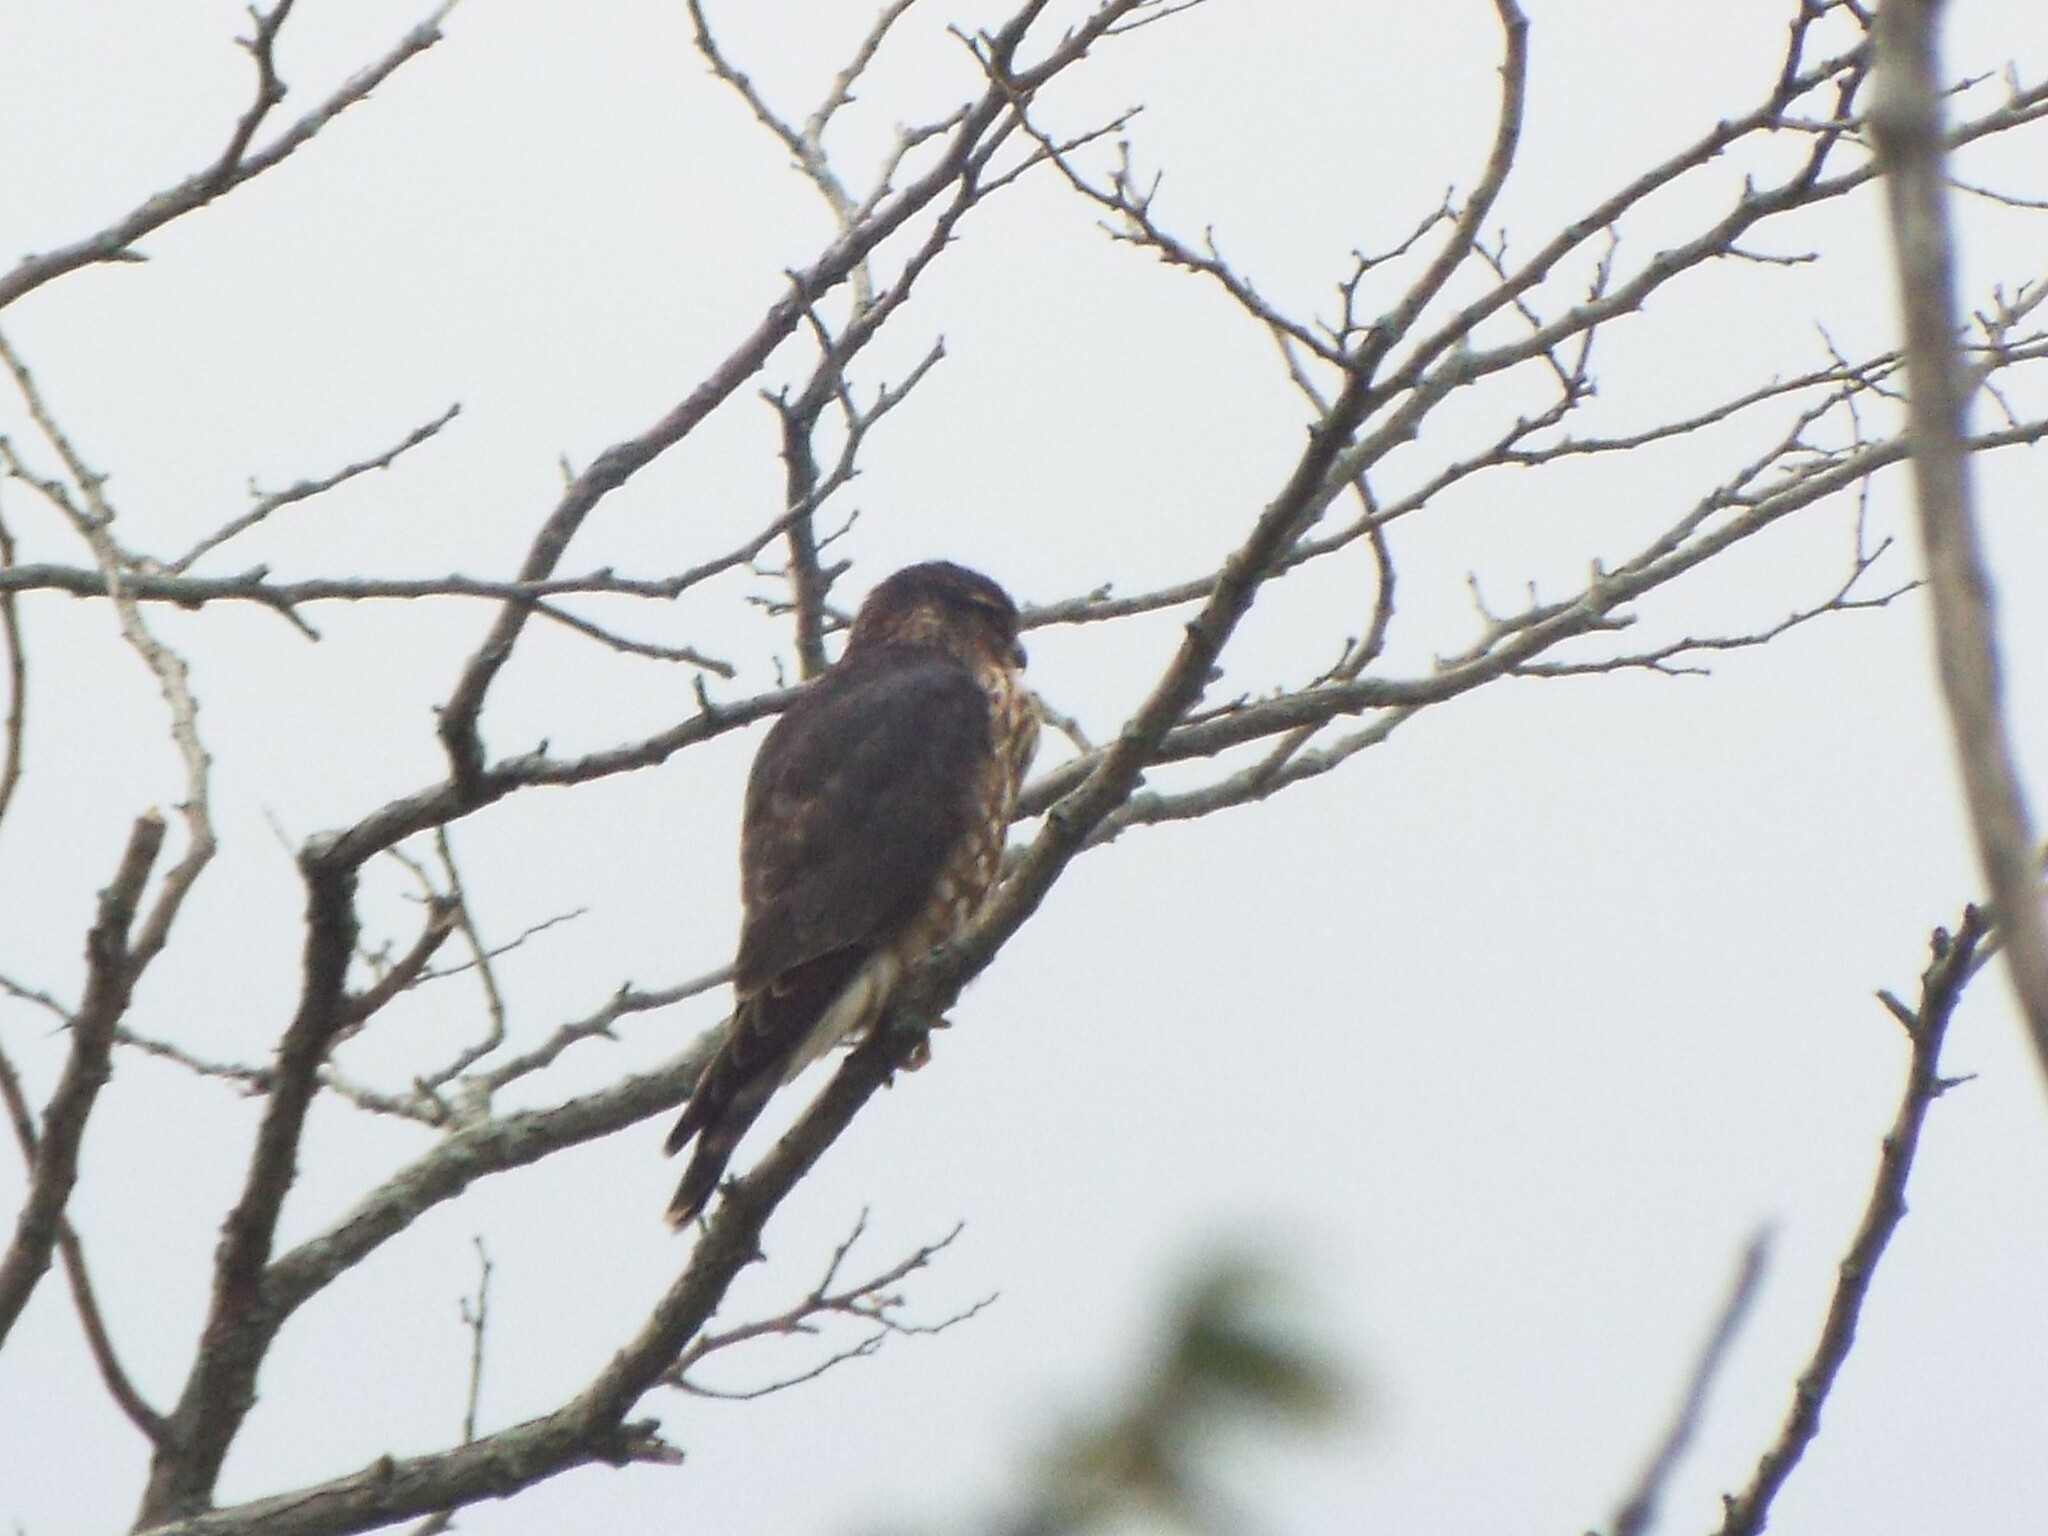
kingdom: Animalia
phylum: Chordata
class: Aves
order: Falconiformes
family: Falconidae
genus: Falco
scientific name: Falco columbarius
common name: Merlin
